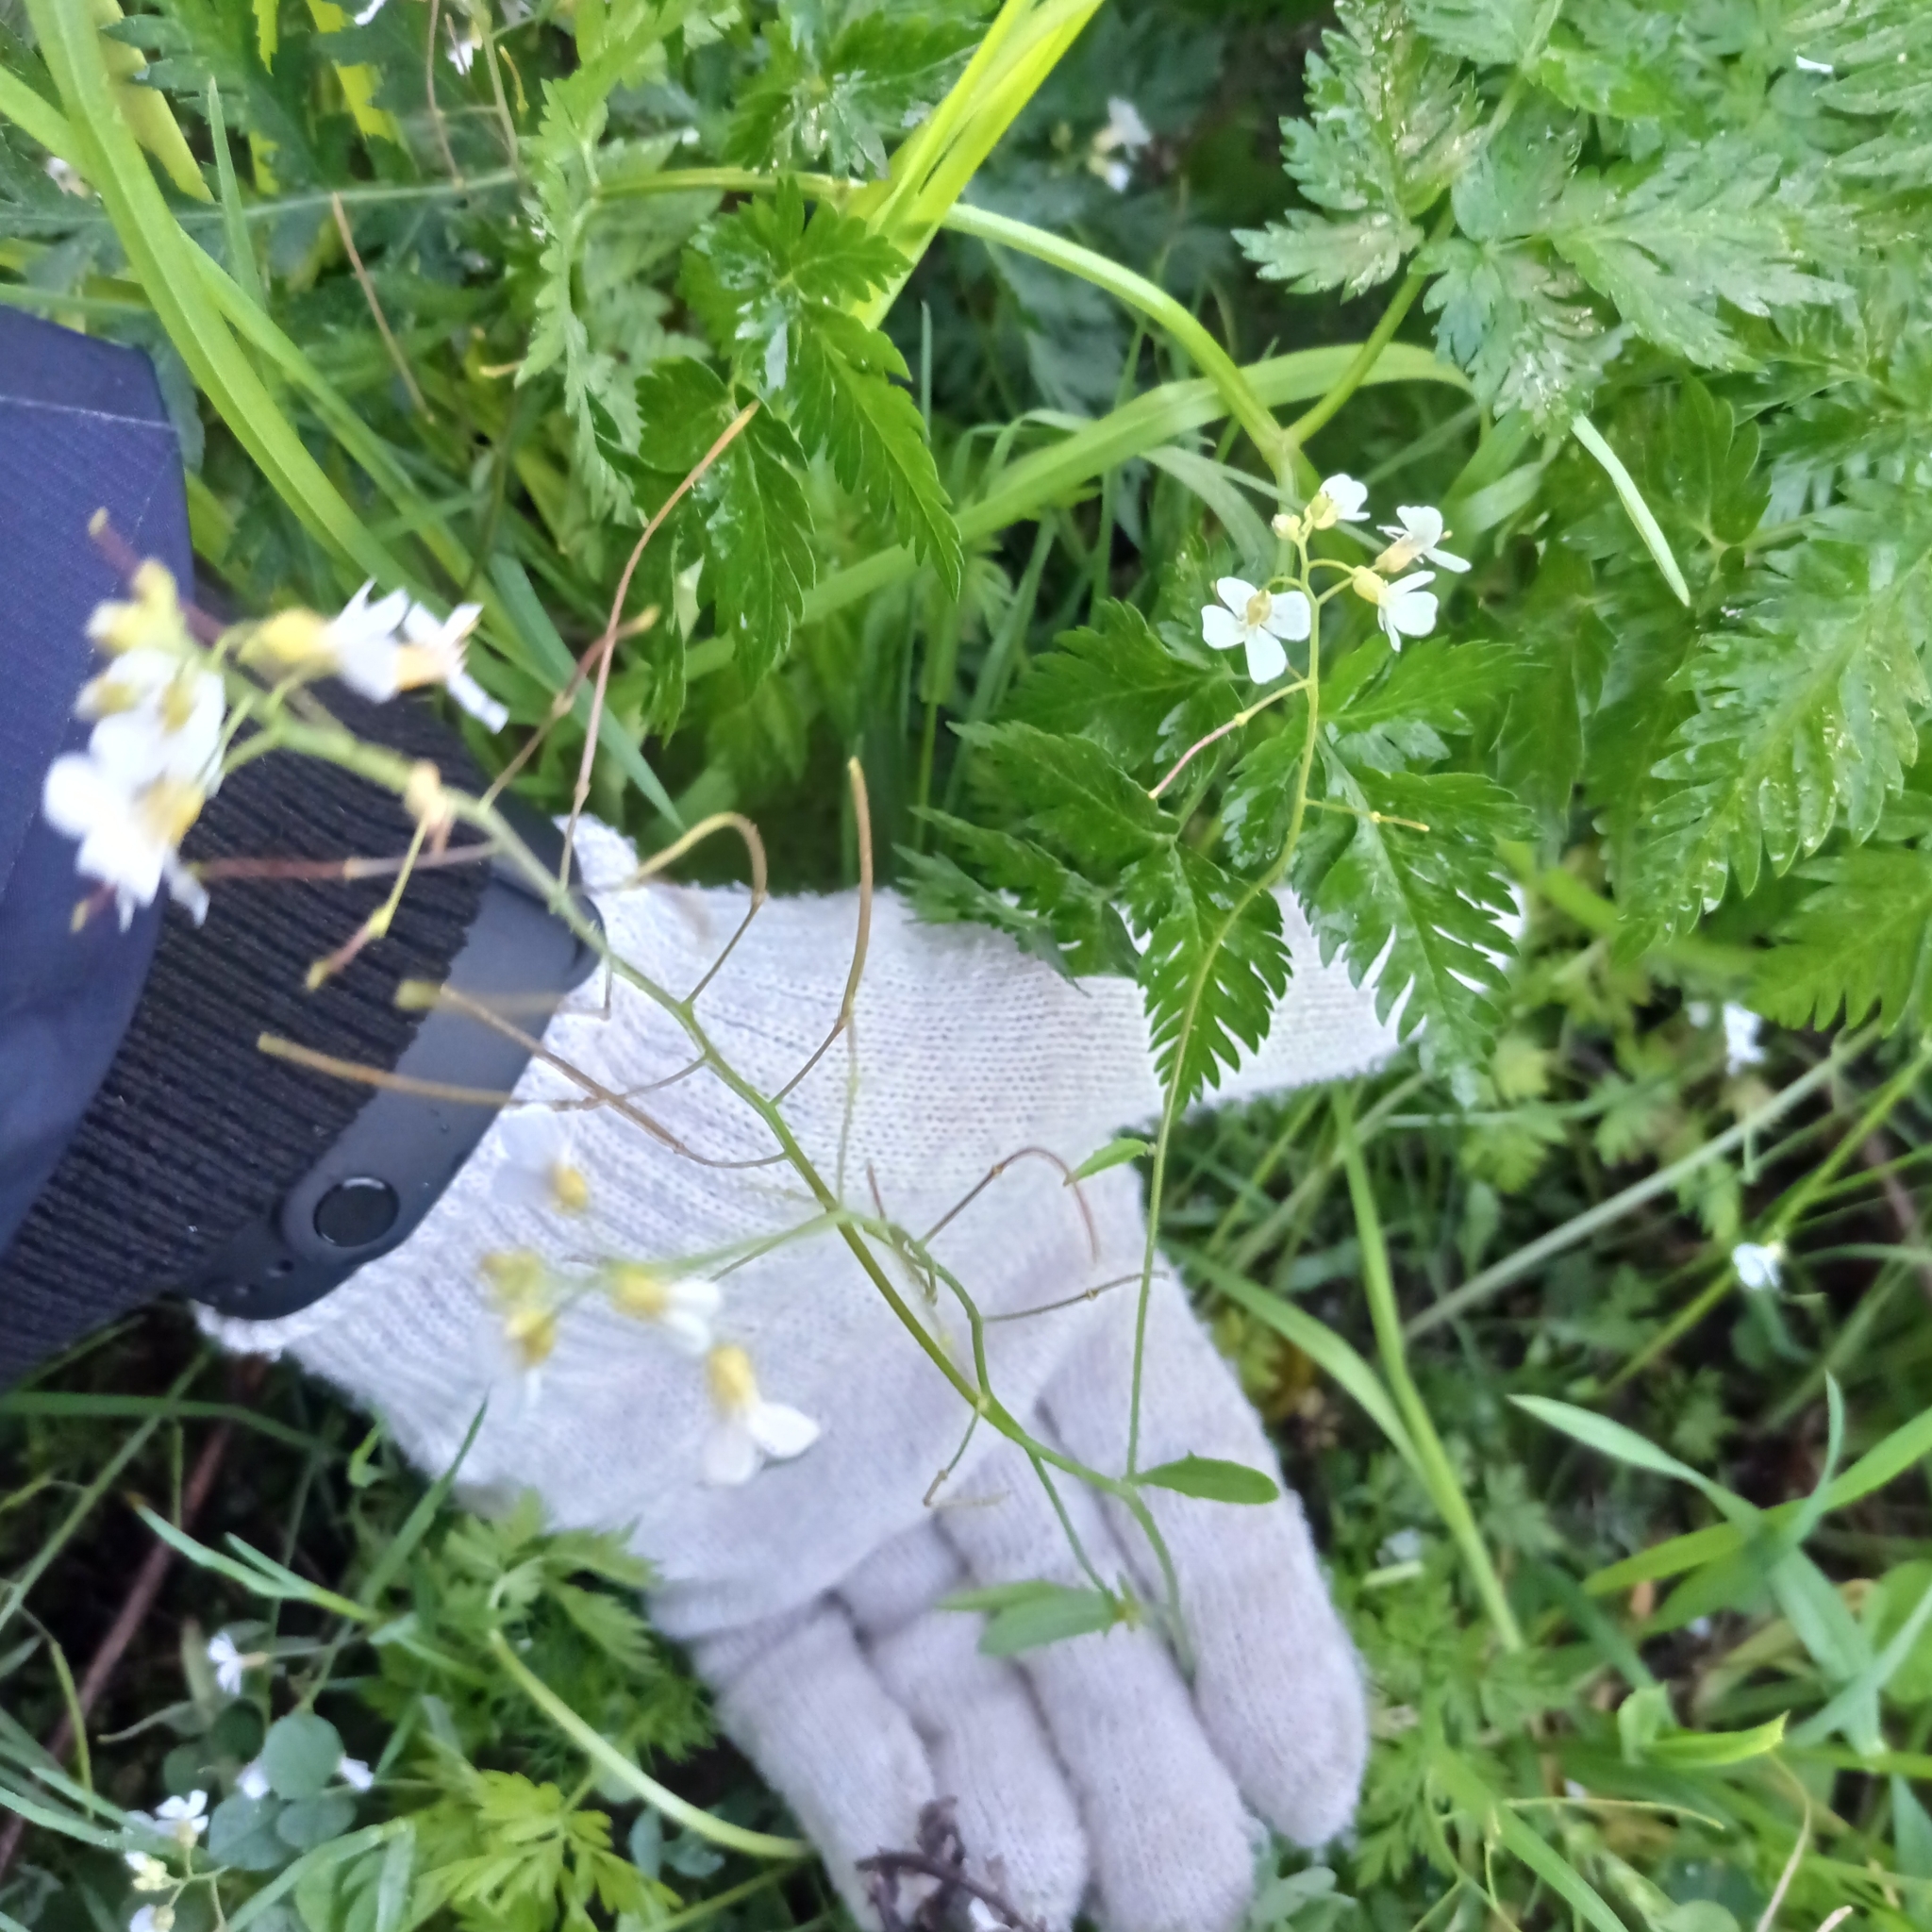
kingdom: Plantae
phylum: Tracheophyta
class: Magnoliopsida
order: Brassicales
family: Brassicaceae
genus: Arabidopsis
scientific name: Arabidopsis arenosa
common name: Sand rock-cress
